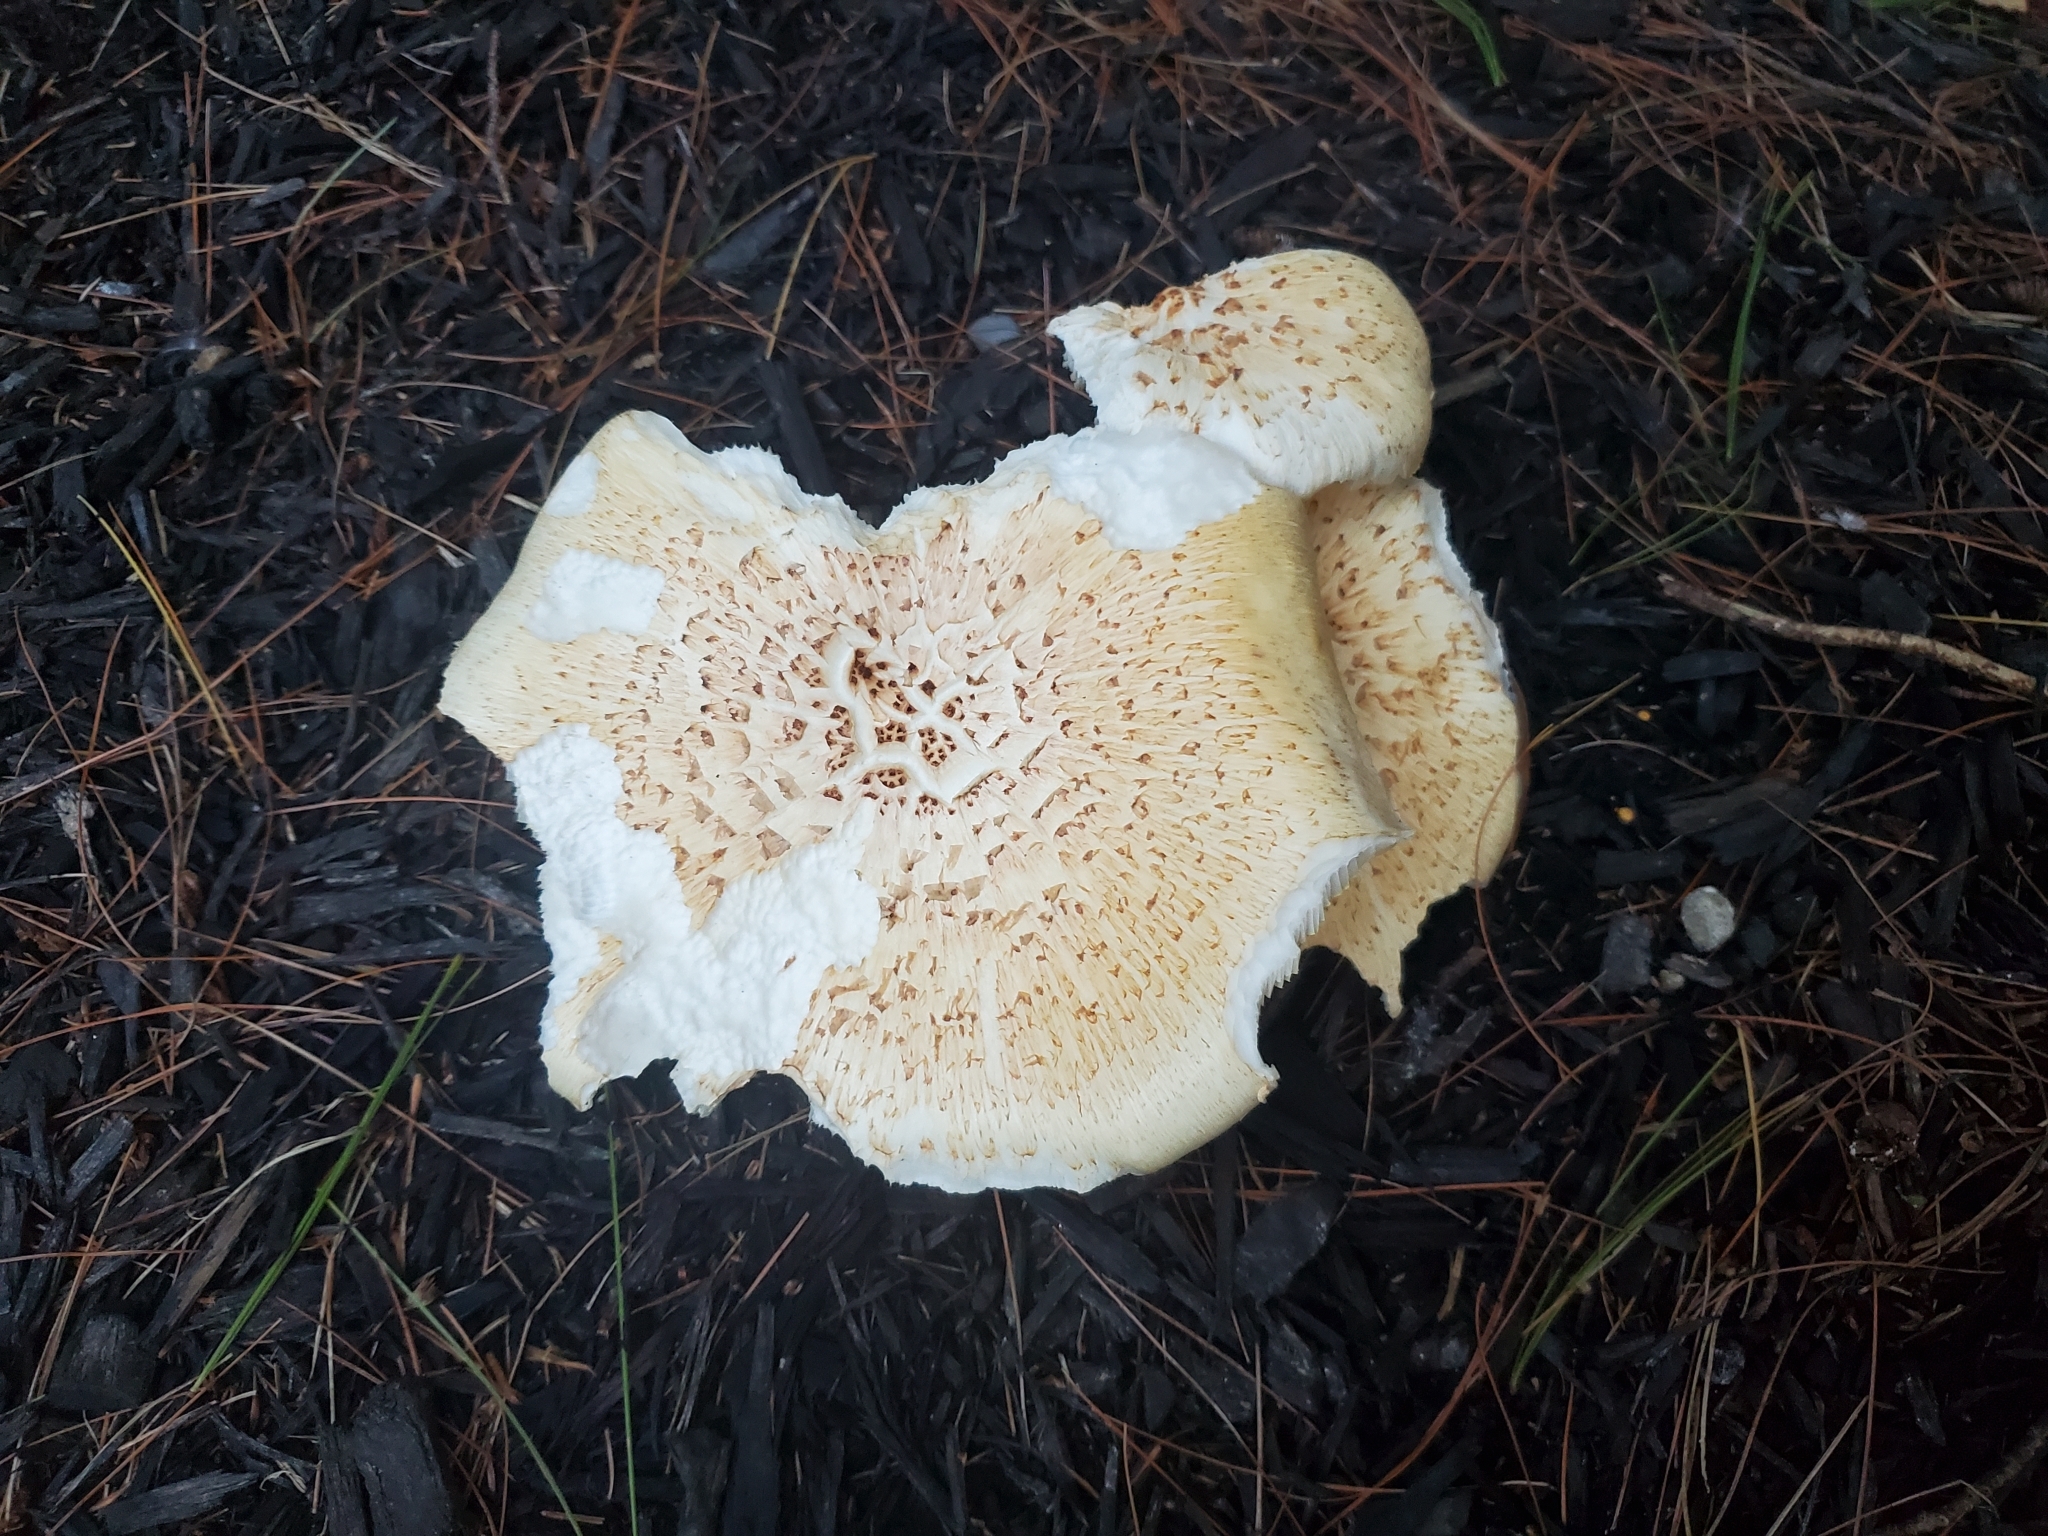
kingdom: Fungi
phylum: Basidiomycota
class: Agaricomycetes
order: Gloeophyllales
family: Gloeophyllaceae
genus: Neolentinus
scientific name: Neolentinus lepideus
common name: Scaly sawgill
